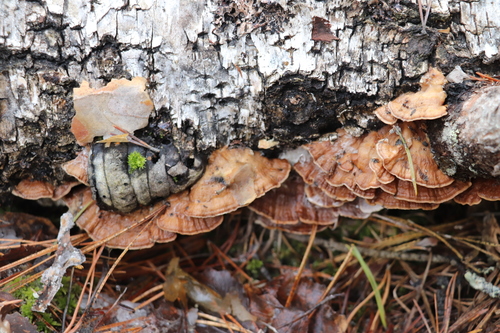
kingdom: Fungi
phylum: Basidiomycota
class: Agaricomycetes
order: Polyporales
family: Steccherinaceae
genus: Metuloidea
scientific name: Metuloidea murashkinskyi
